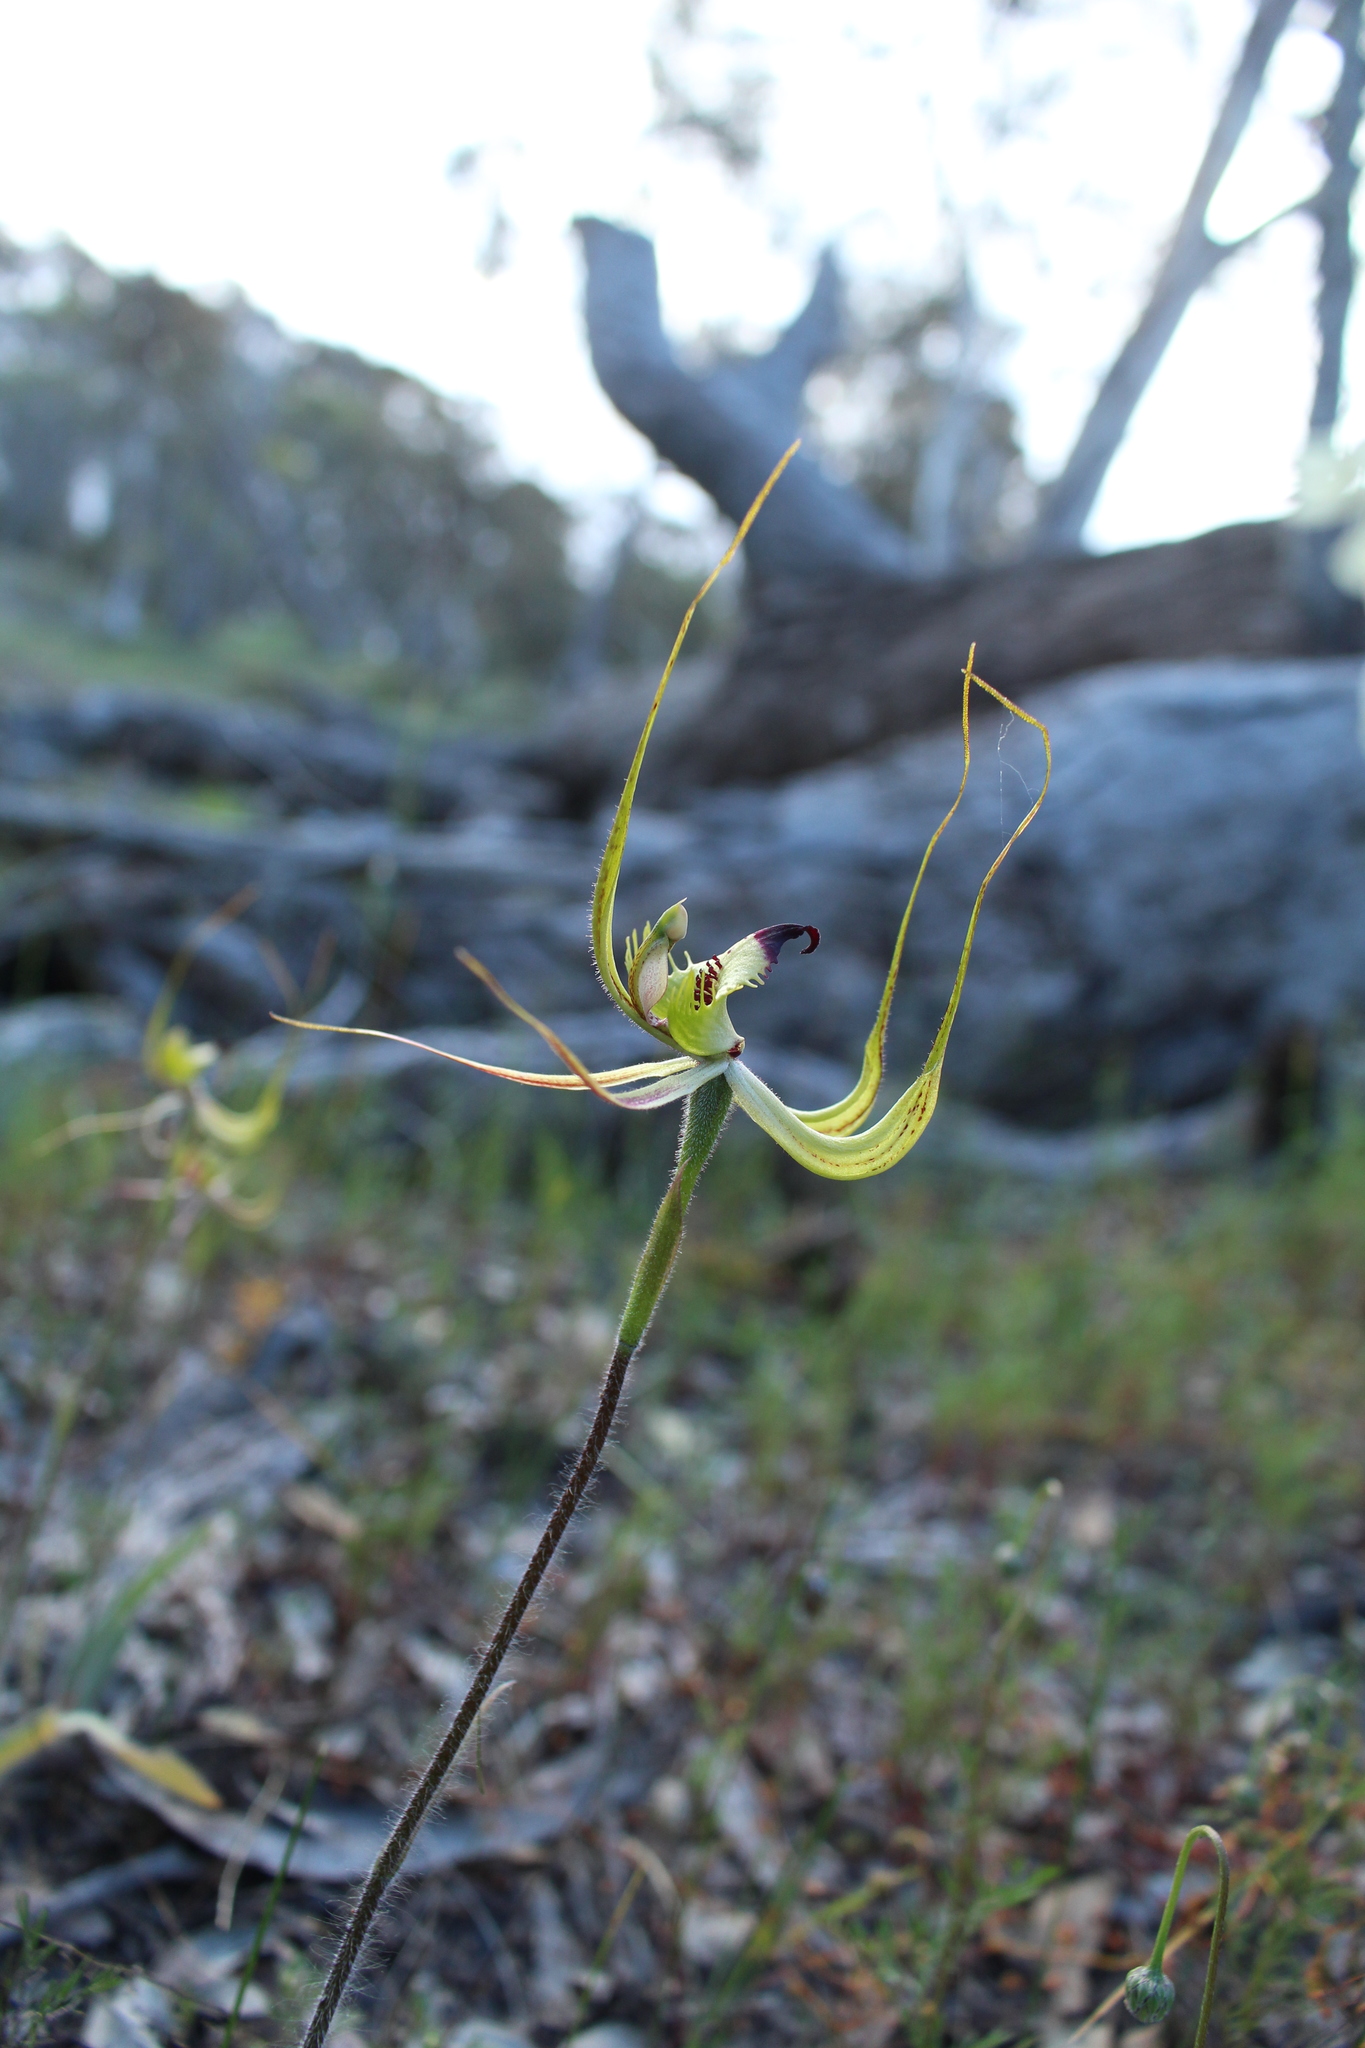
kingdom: Plantae
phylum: Tracheophyta
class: Liliopsida
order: Asparagales
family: Orchidaceae
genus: Caladenia
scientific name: Caladenia falcata
